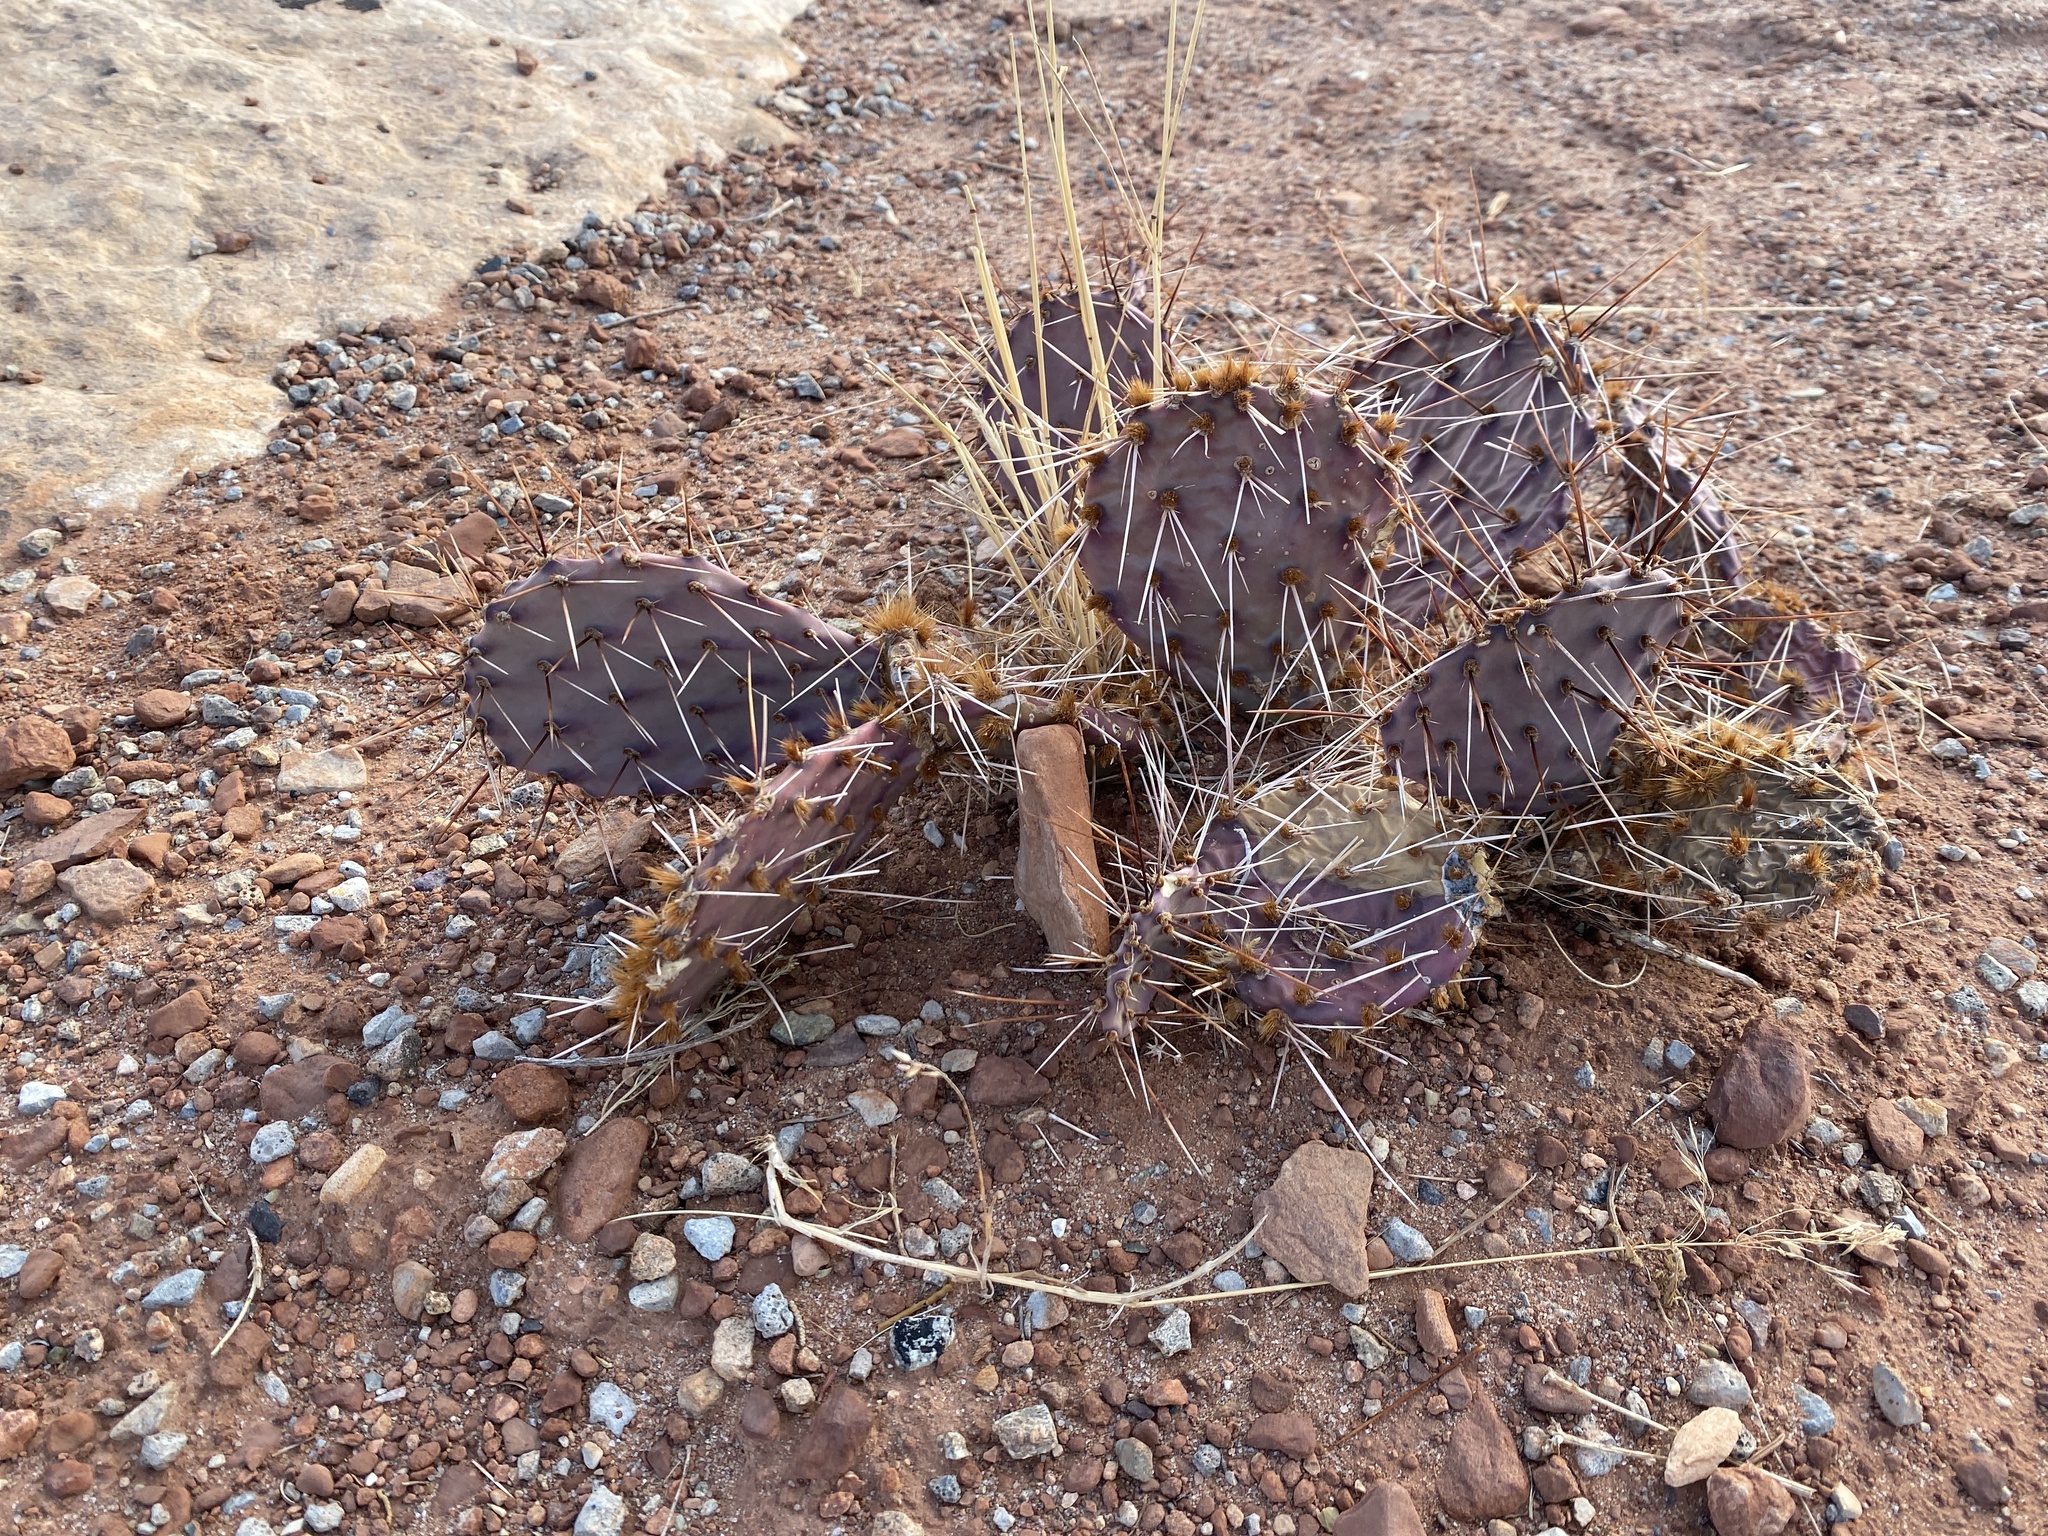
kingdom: Plantae
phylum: Tracheophyta
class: Magnoliopsida
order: Caryophyllales
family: Cactaceae
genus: Opuntia
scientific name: Opuntia phaeacantha
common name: New mexico prickly-pear
